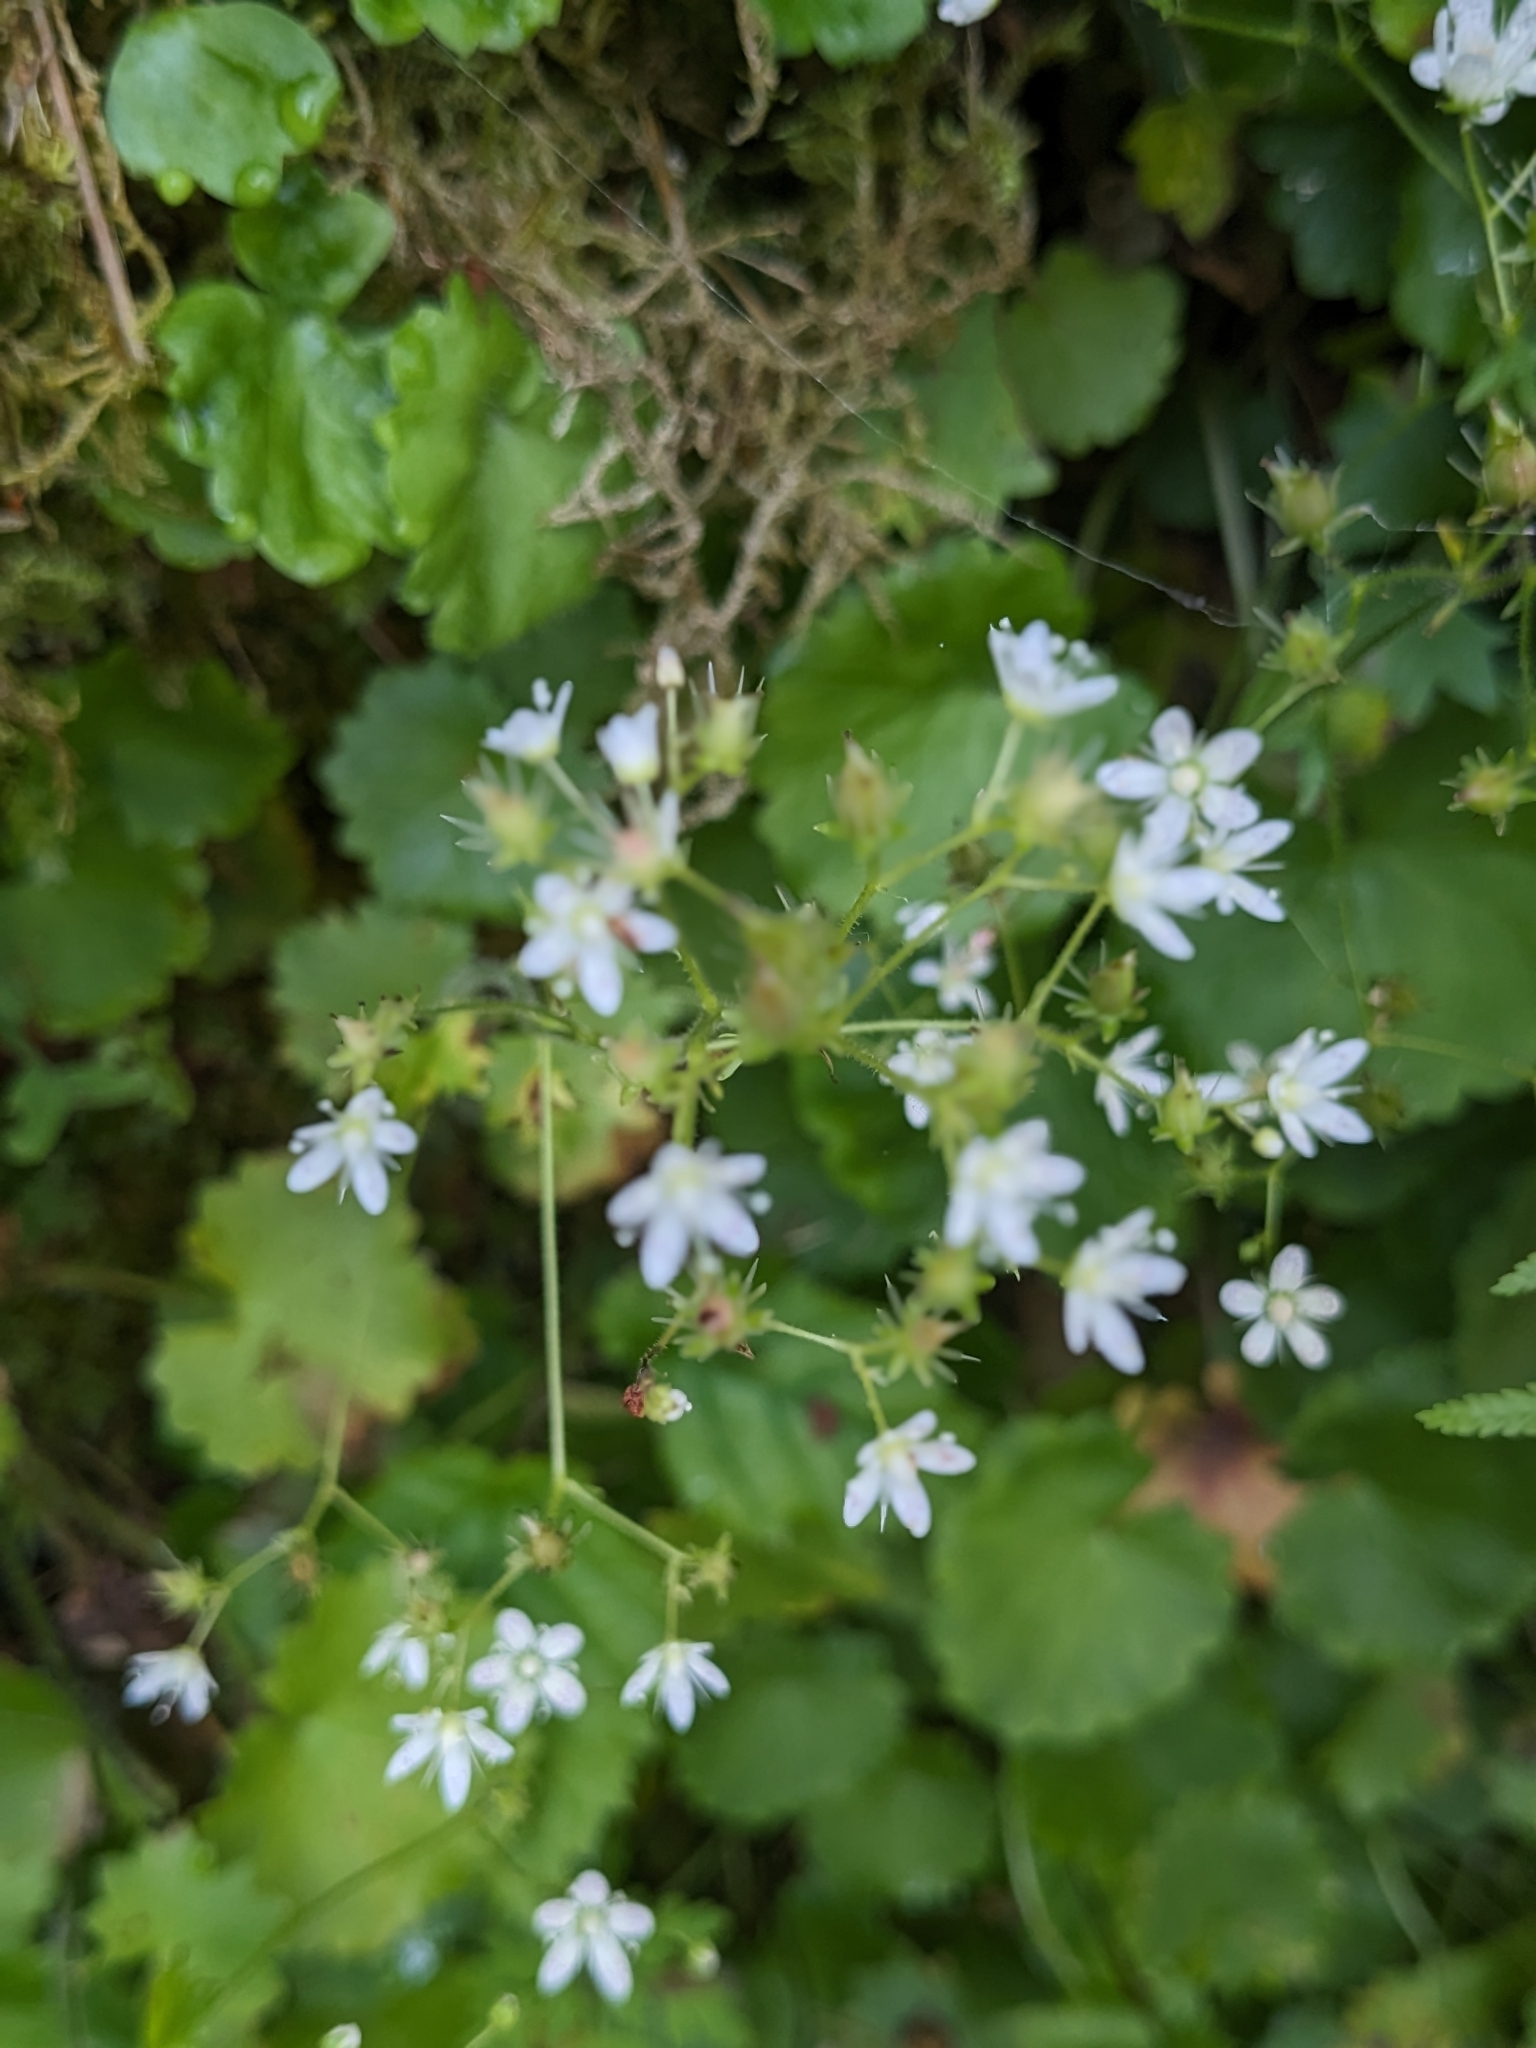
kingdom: Plantae
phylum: Tracheophyta
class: Magnoliopsida
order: Saxifragales
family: Saxifragaceae
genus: Saxifraga
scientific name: Saxifraga rotundifolia
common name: Round-leaved saxifrage
